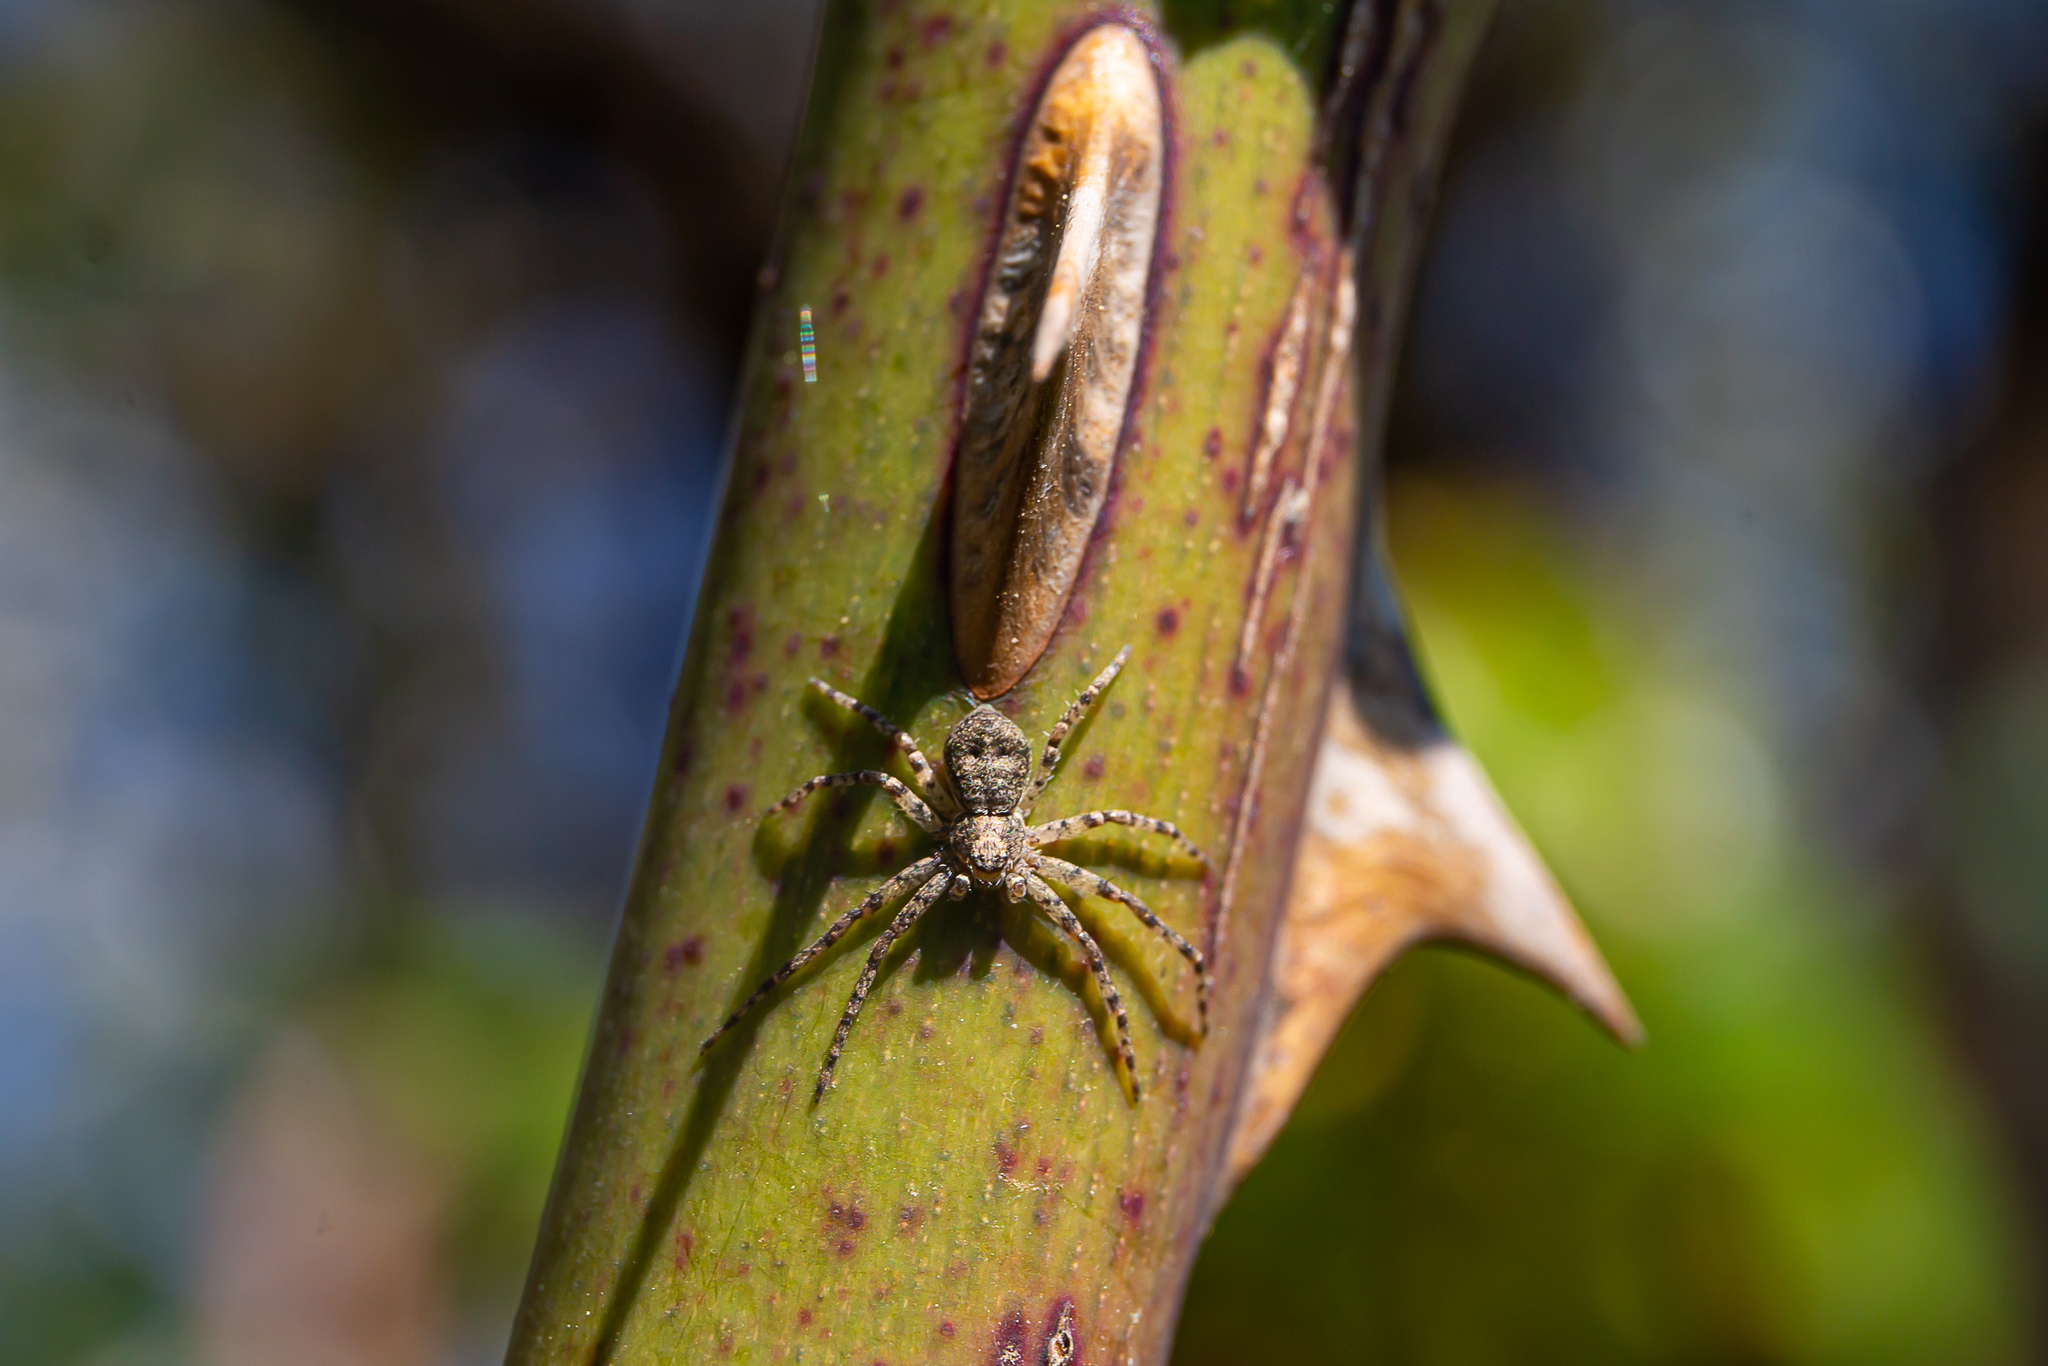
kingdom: Animalia
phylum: Arthropoda
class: Arachnida
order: Araneae
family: Philodromidae
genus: Philodromus
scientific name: Philodromus
